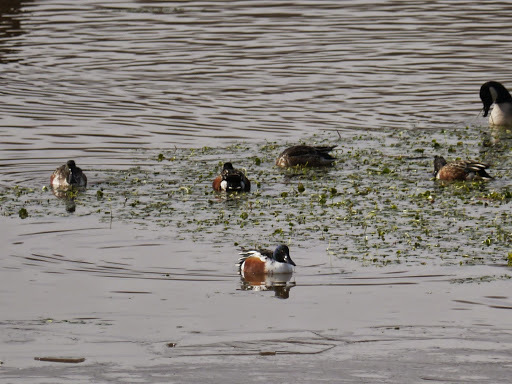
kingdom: Animalia
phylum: Chordata
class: Aves
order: Anseriformes
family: Anatidae
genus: Spatula
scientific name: Spatula clypeata
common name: Northern shoveler
